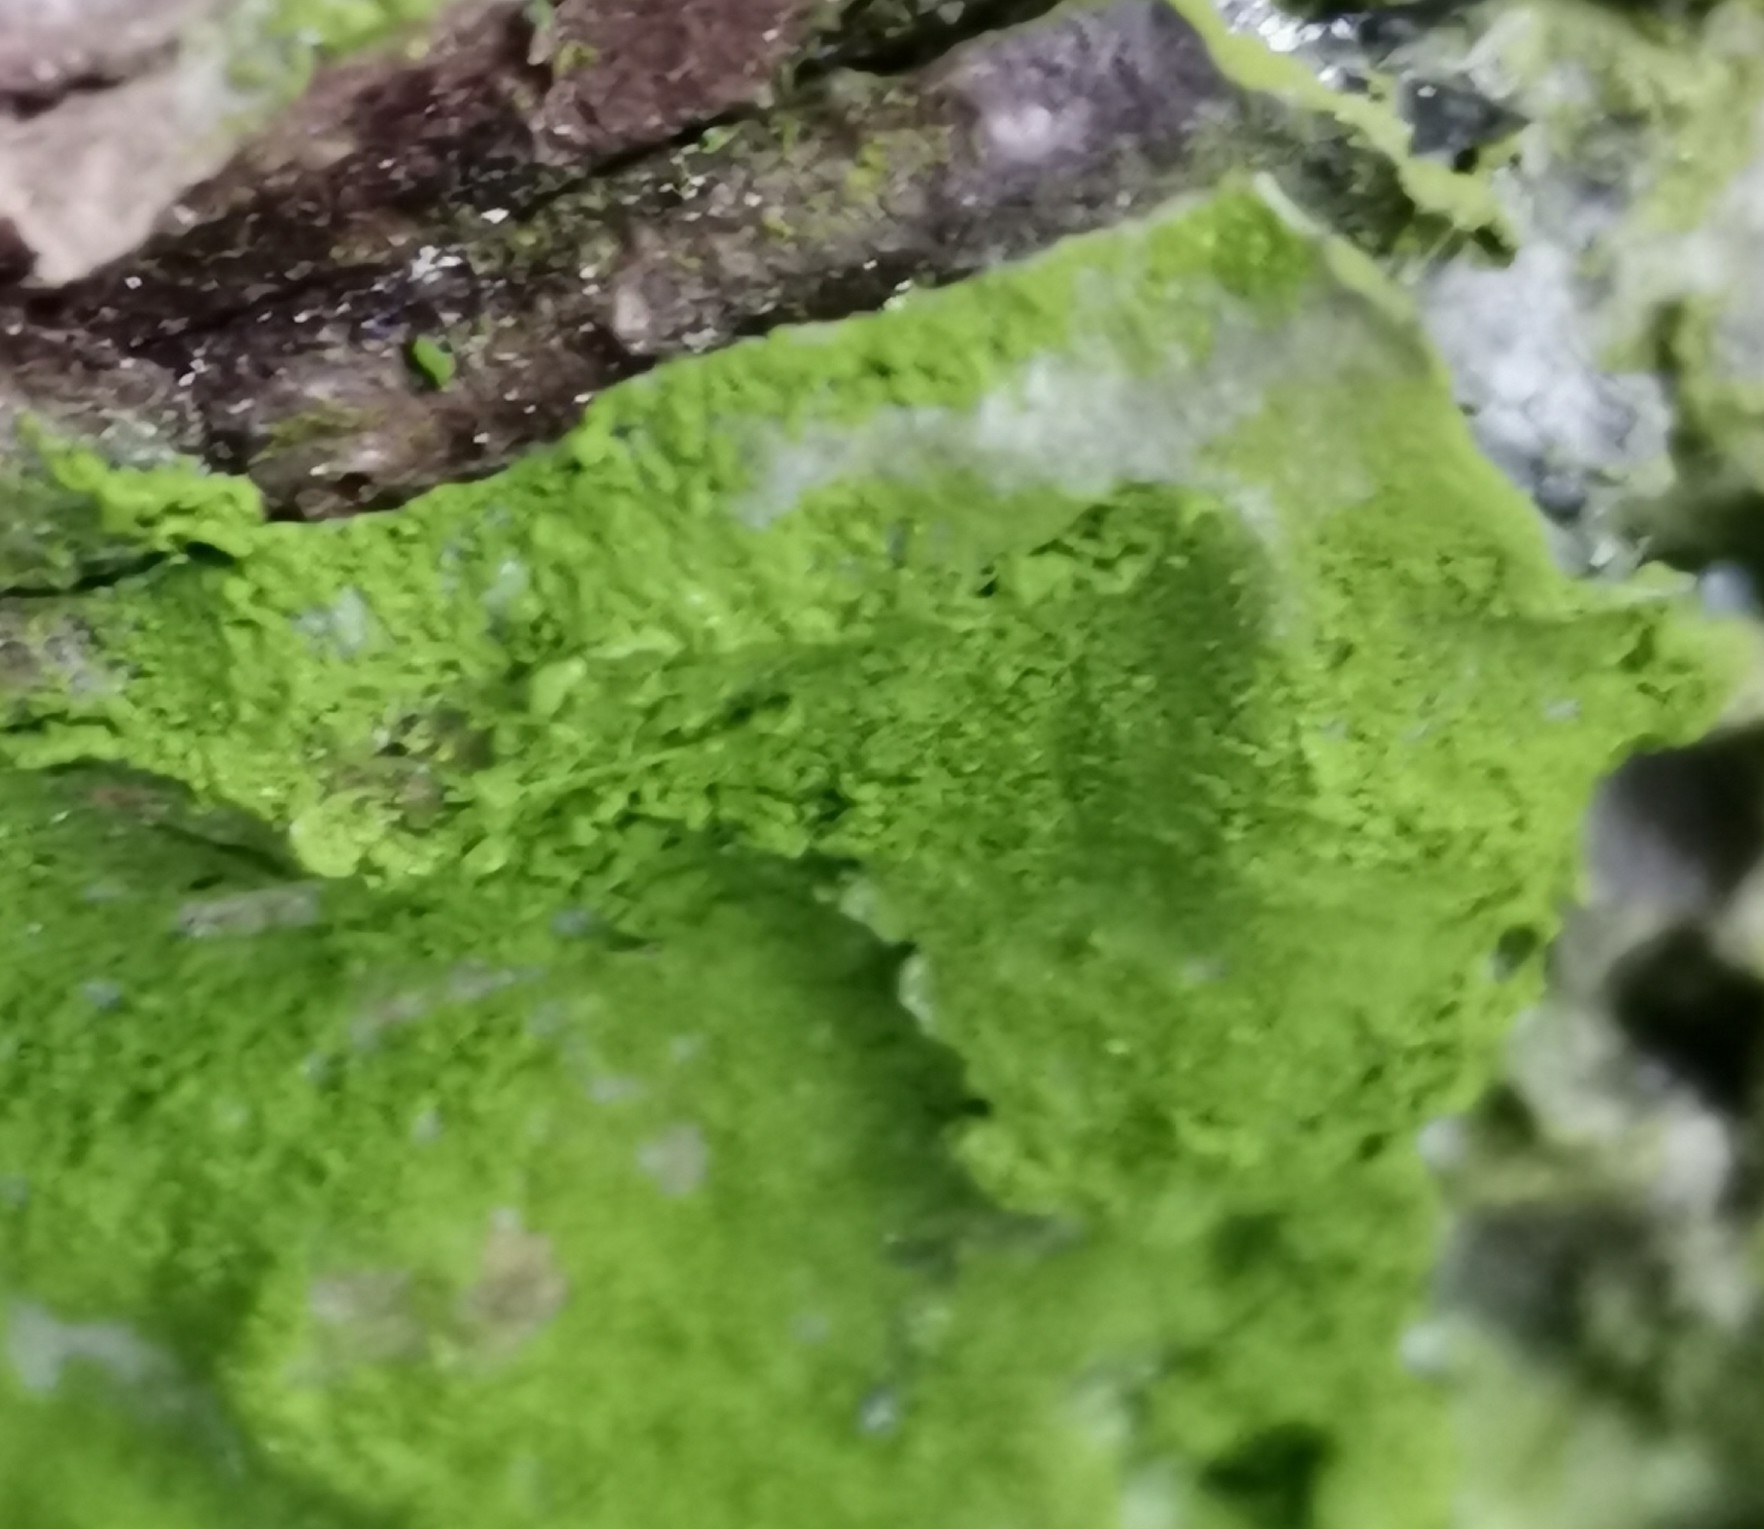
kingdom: Plantae
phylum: Chlorophyta
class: Trebouxiophyceae
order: Prasiolales
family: Prasiolaceae
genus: Desmococcus
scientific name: Desmococcus olivaceus
